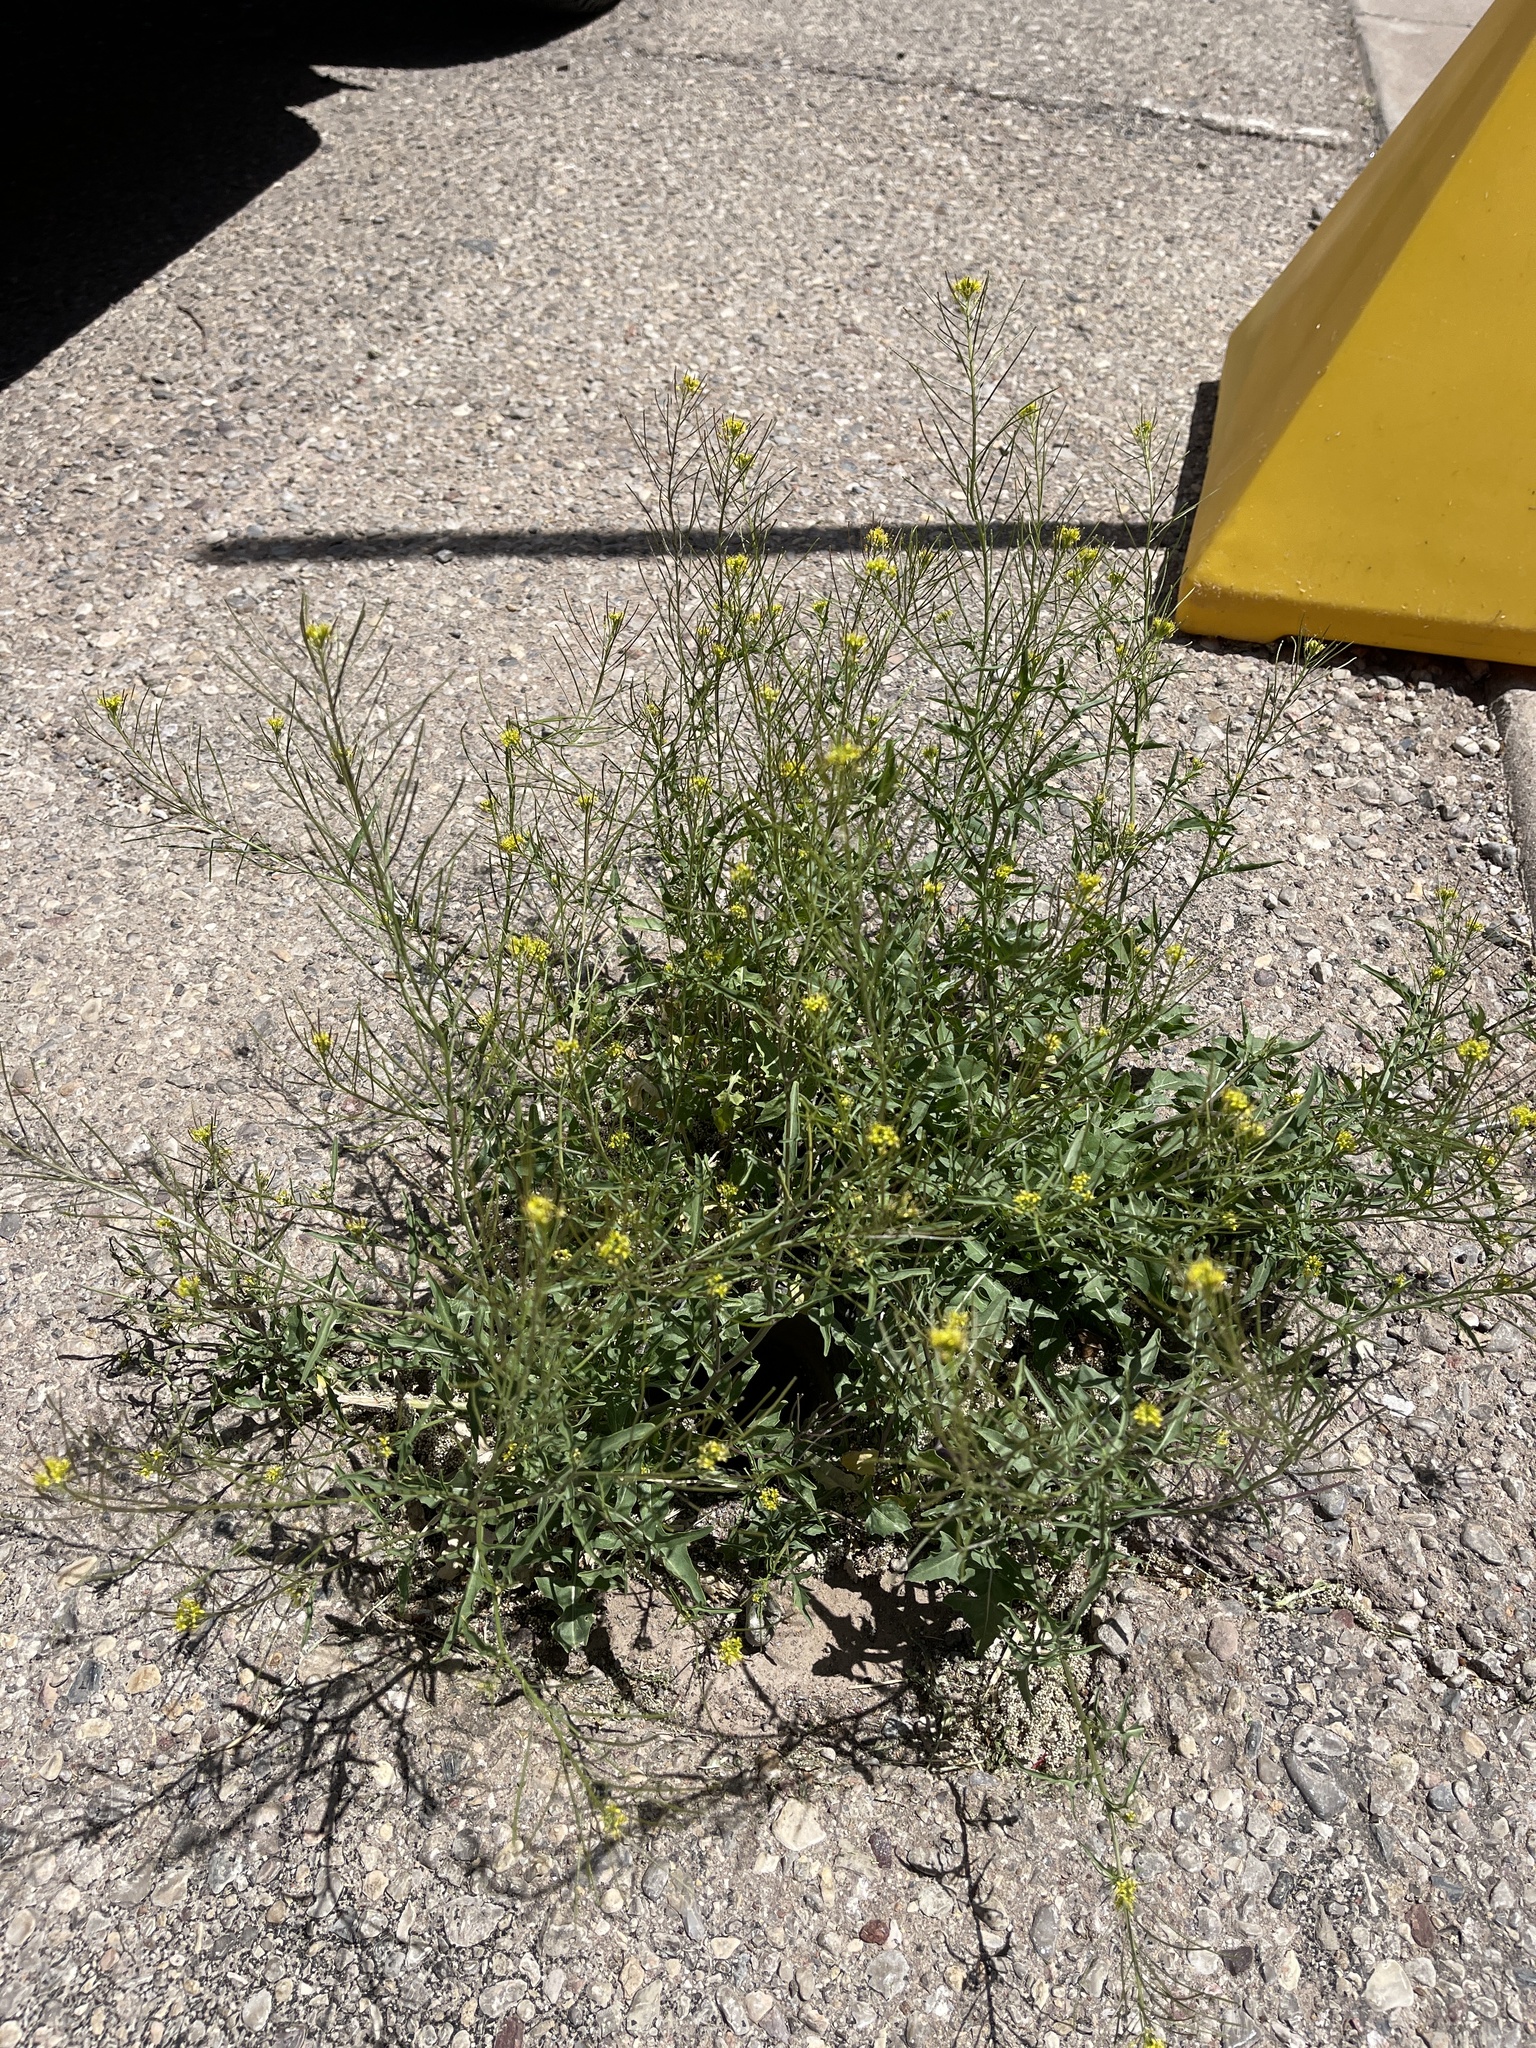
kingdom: Plantae
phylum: Tracheophyta
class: Magnoliopsida
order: Brassicales
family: Brassicaceae
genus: Sisymbrium
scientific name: Sisymbrium irio
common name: London rocket
